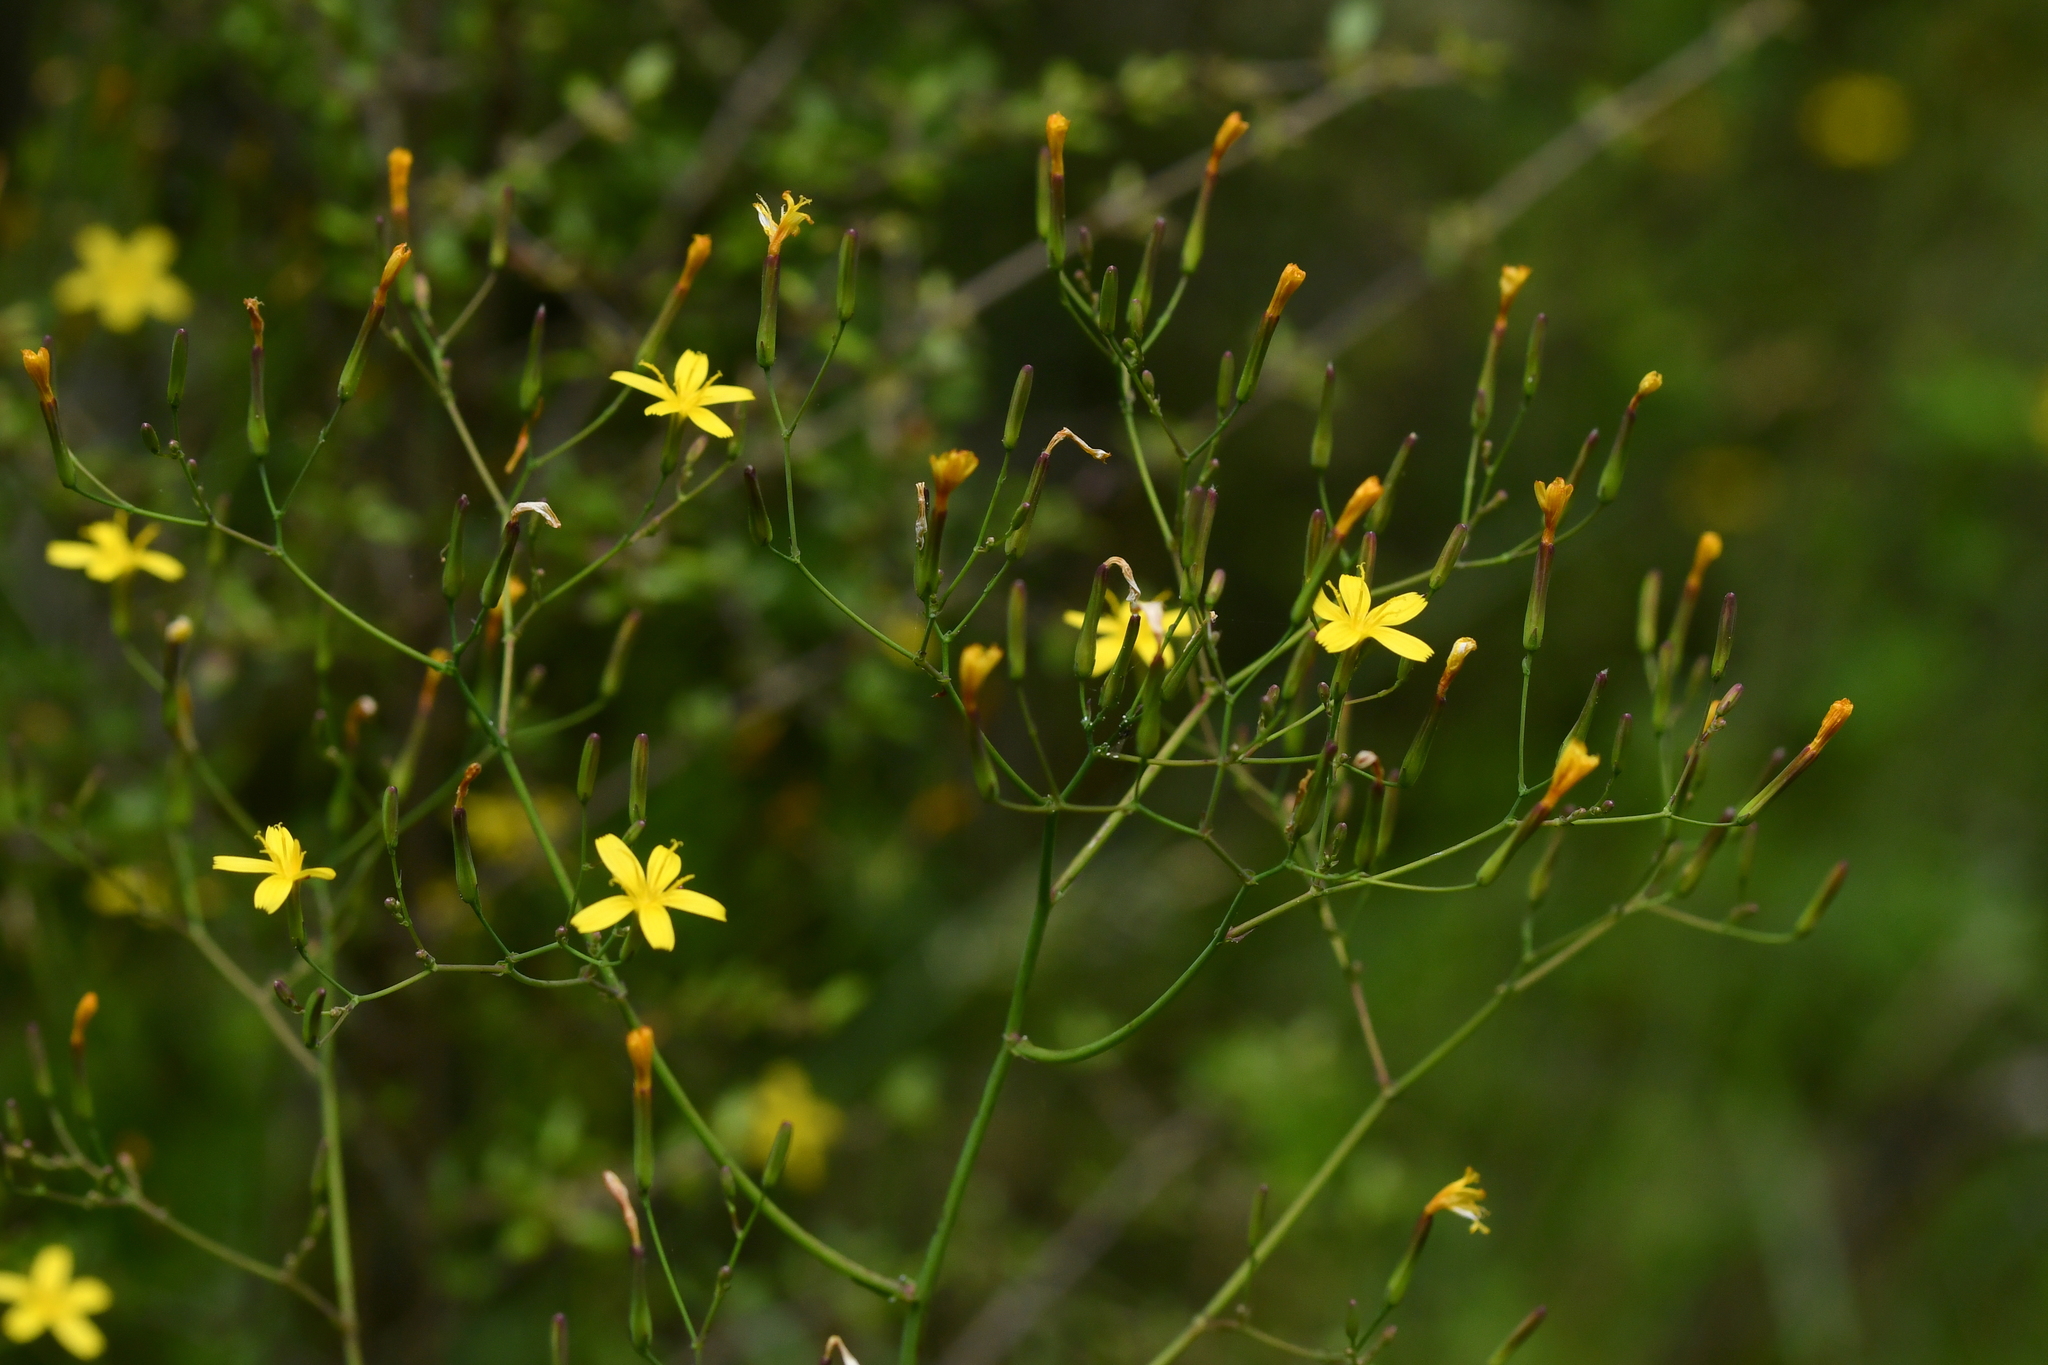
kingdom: Plantae
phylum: Tracheophyta
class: Magnoliopsida
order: Asterales
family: Asteraceae
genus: Mycelis
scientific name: Mycelis muralis
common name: Wall lettuce
